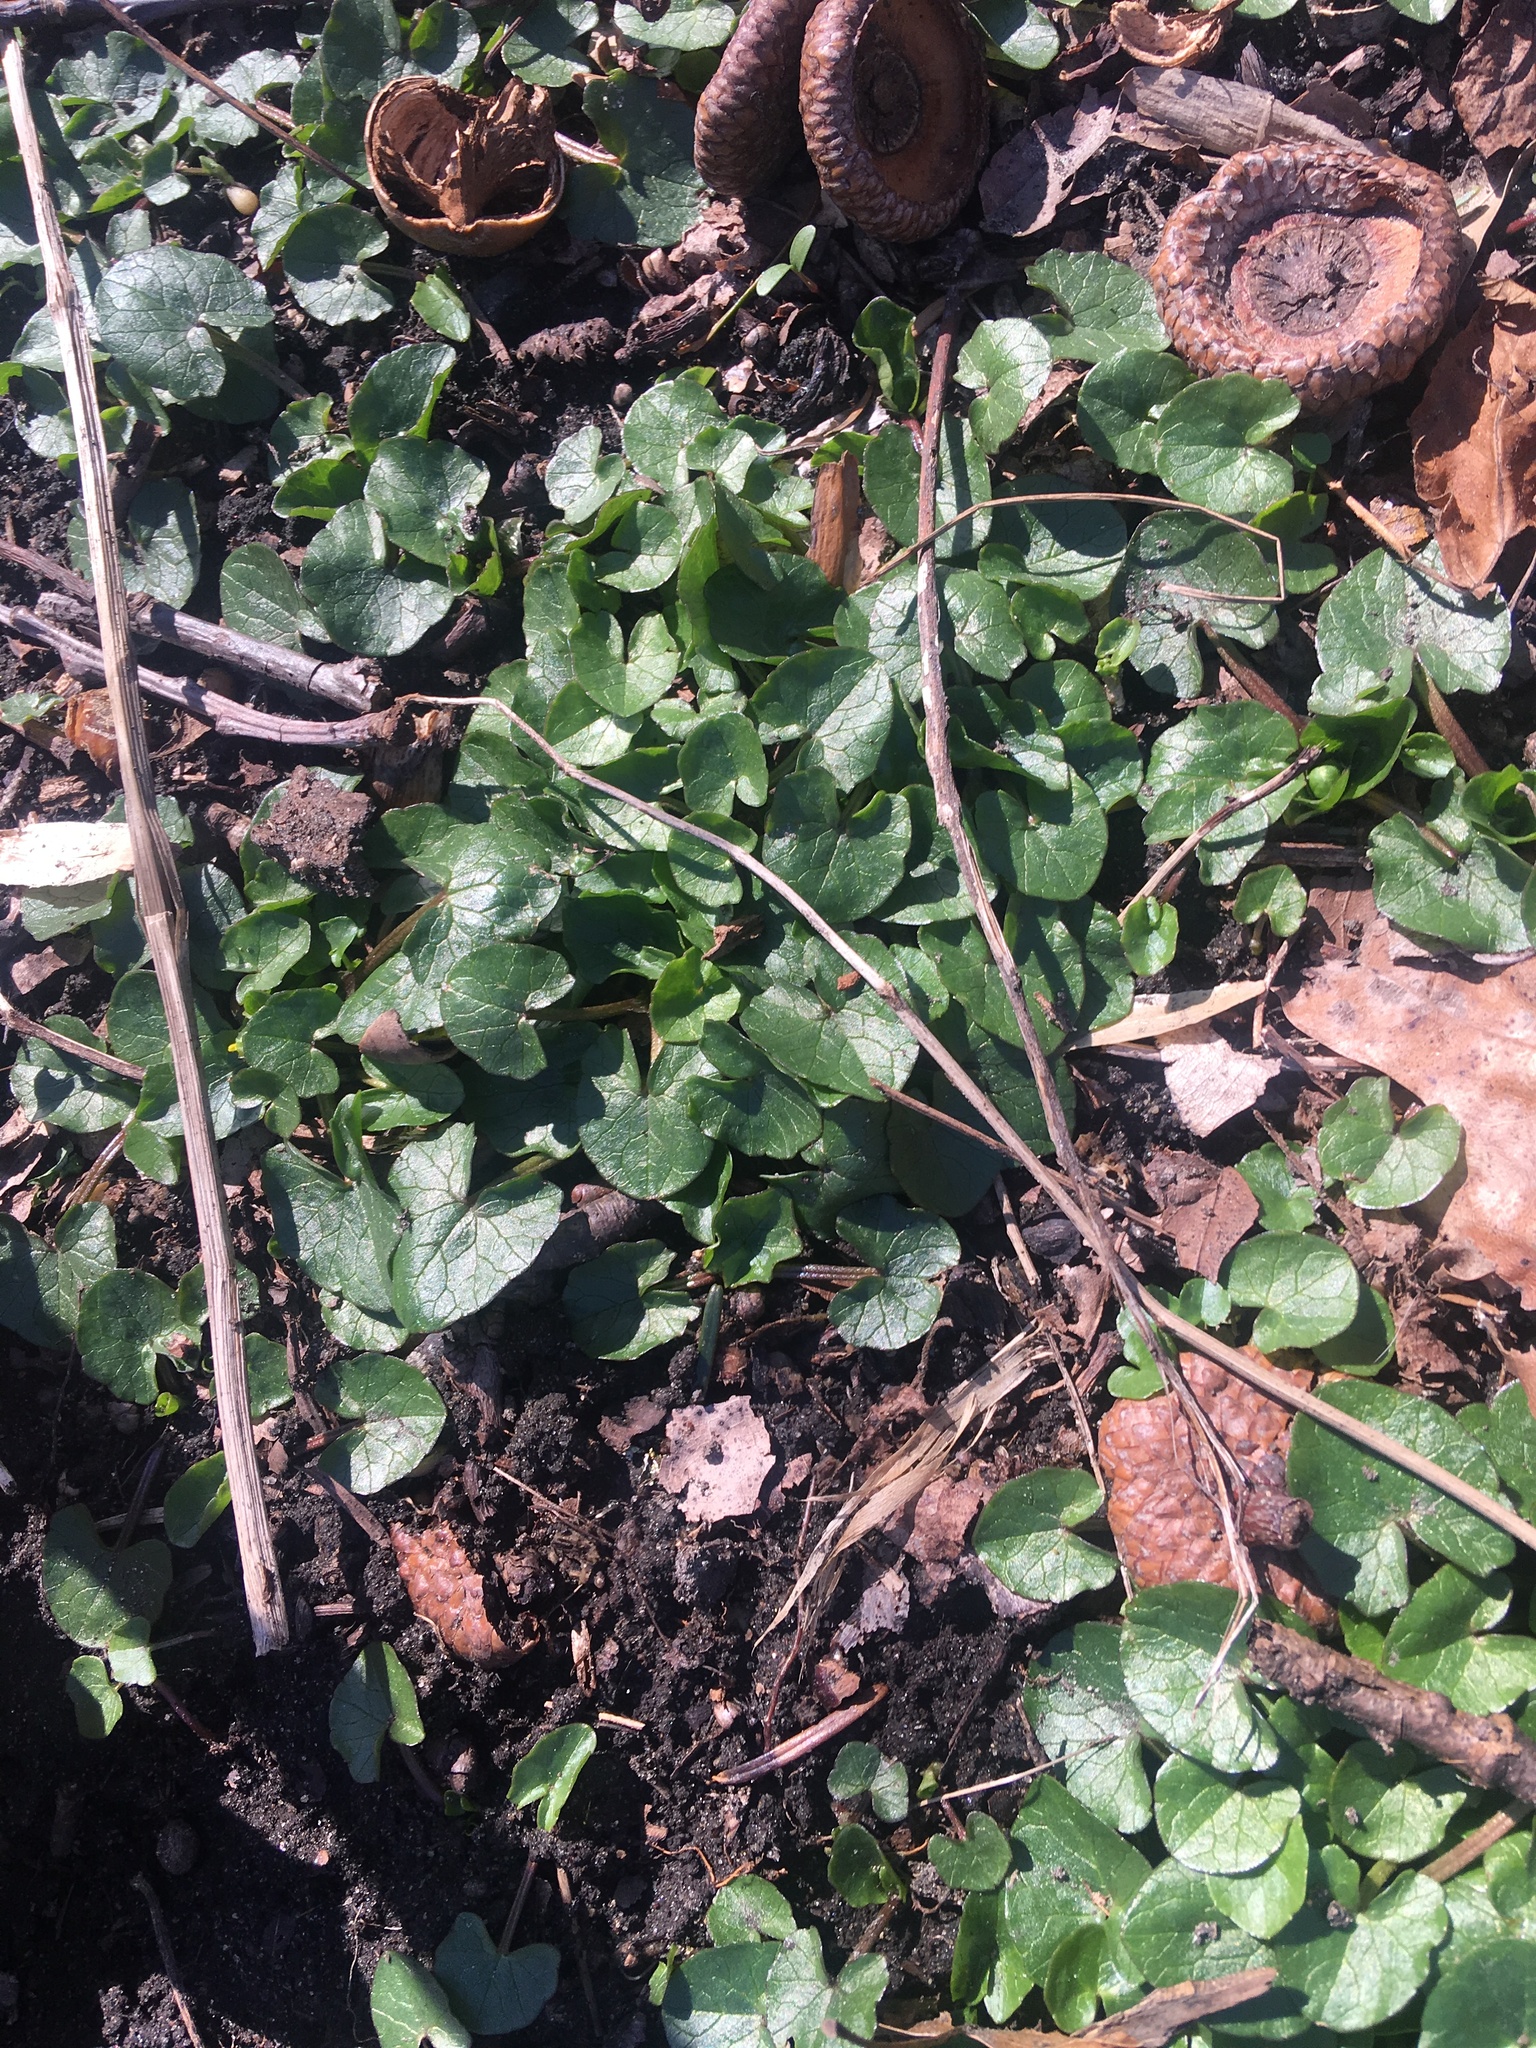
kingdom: Plantae
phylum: Tracheophyta
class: Magnoliopsida
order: Ranunculales
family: Ranunculaceae
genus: Ficaria
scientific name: Ficaria verna
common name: Lesser celandine
